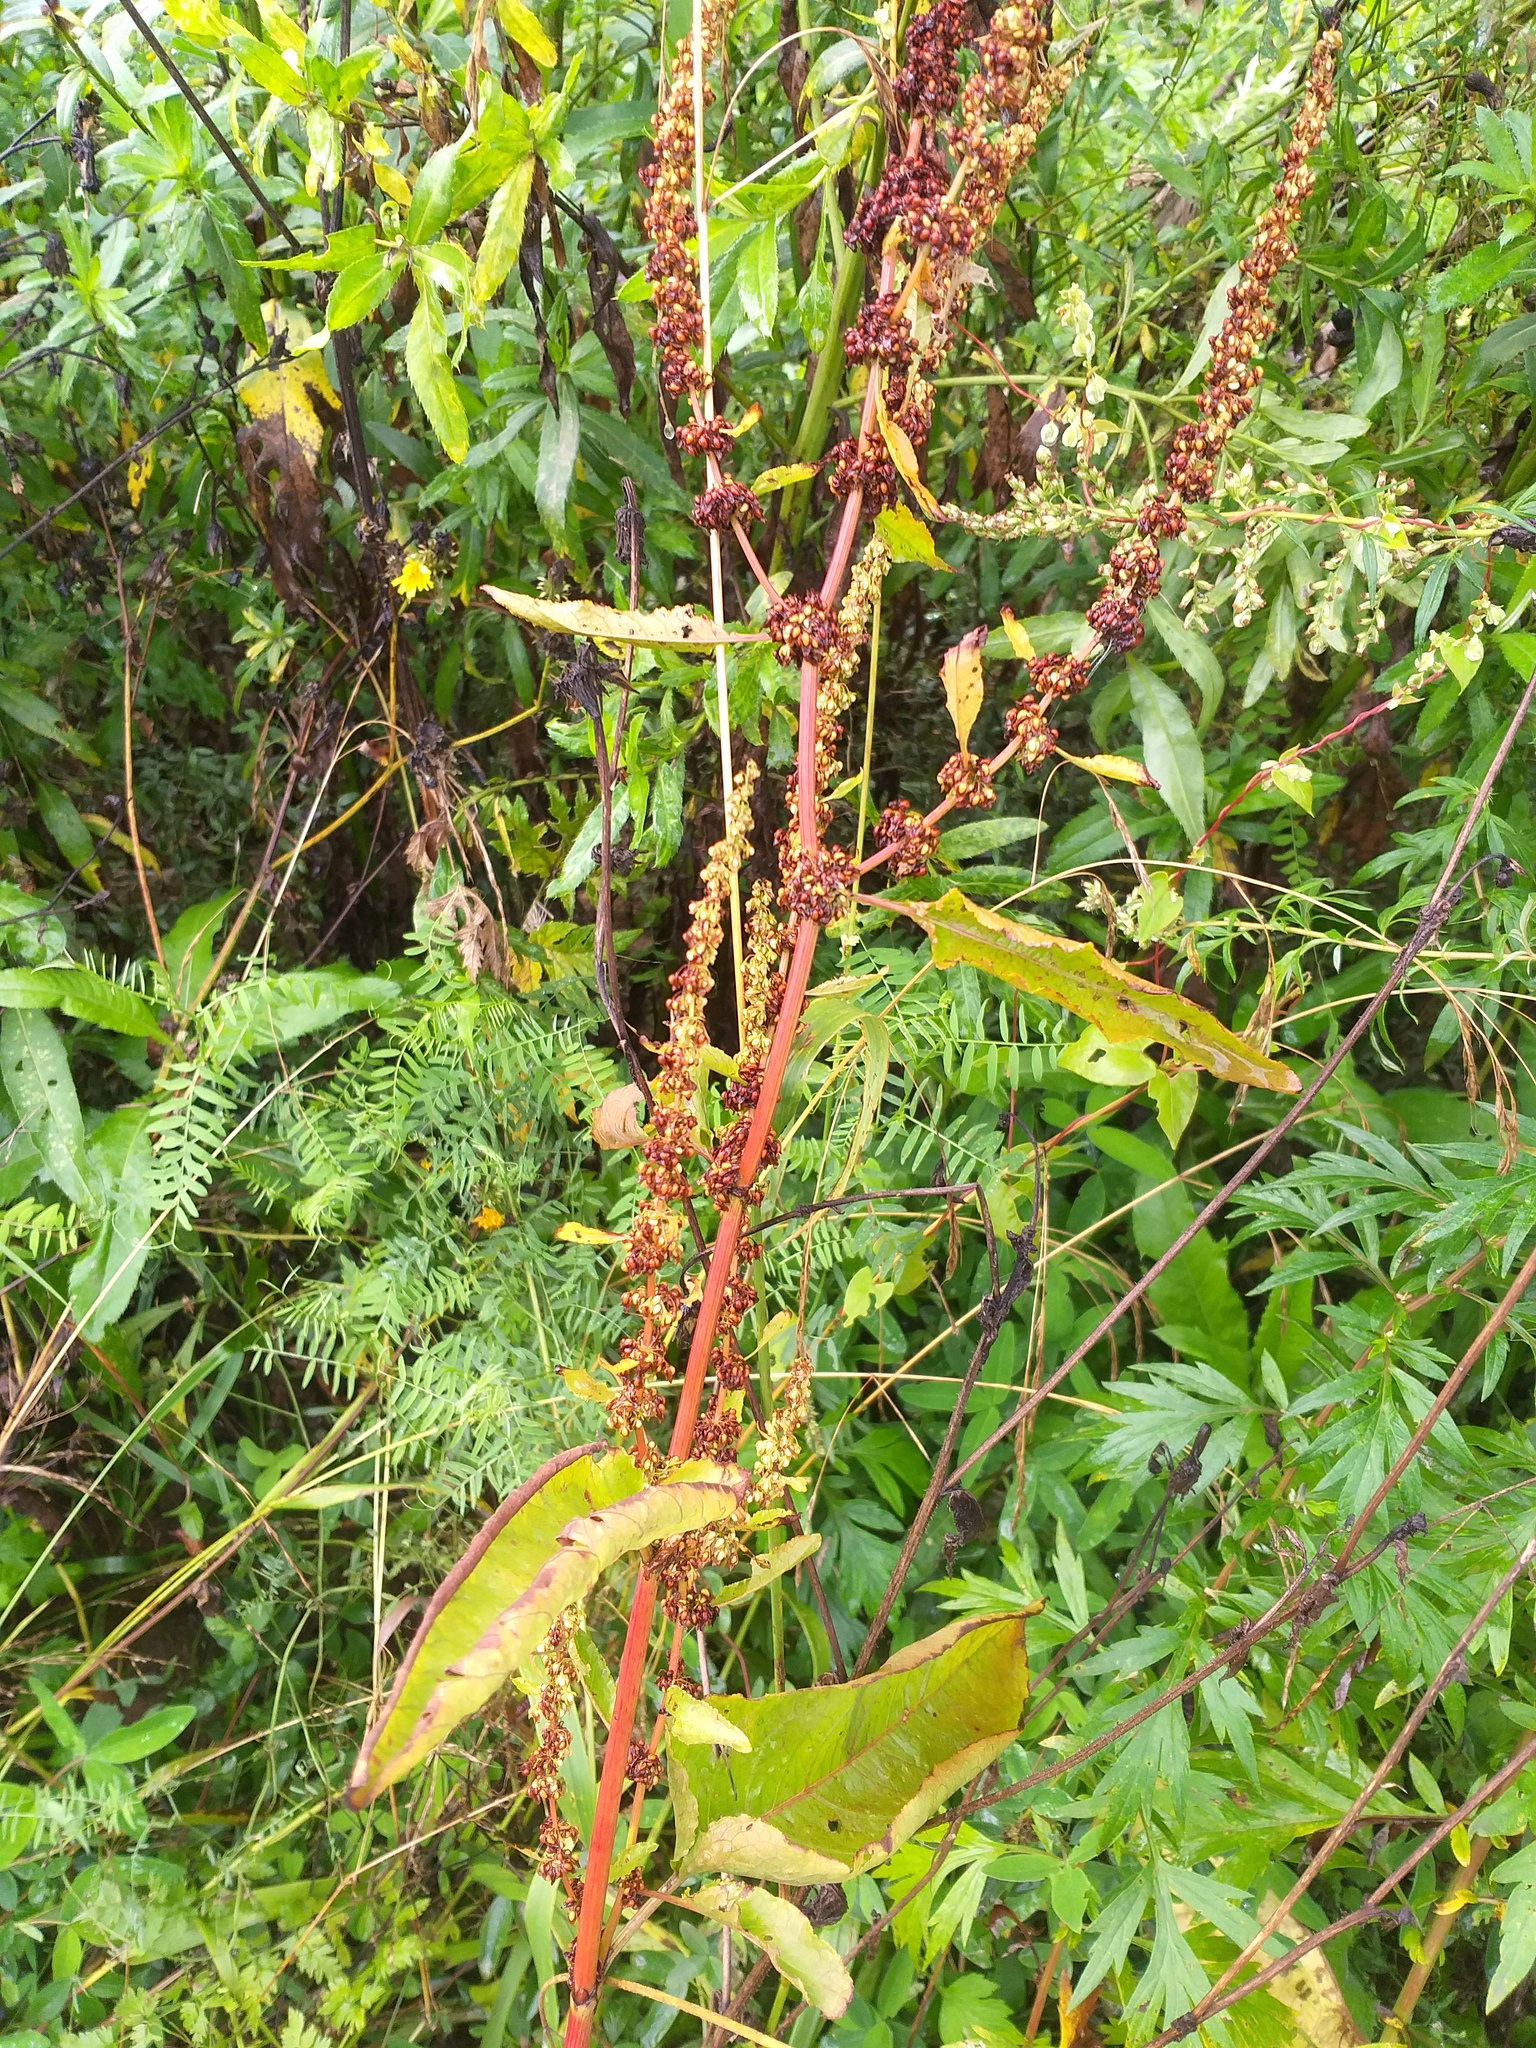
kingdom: Plantae
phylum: Tracheophyta
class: Magnoliopsida
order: Caryophyllales
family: Polygonaceae
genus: Rumex
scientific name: Rumex obtusifolius
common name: Bitter dock
